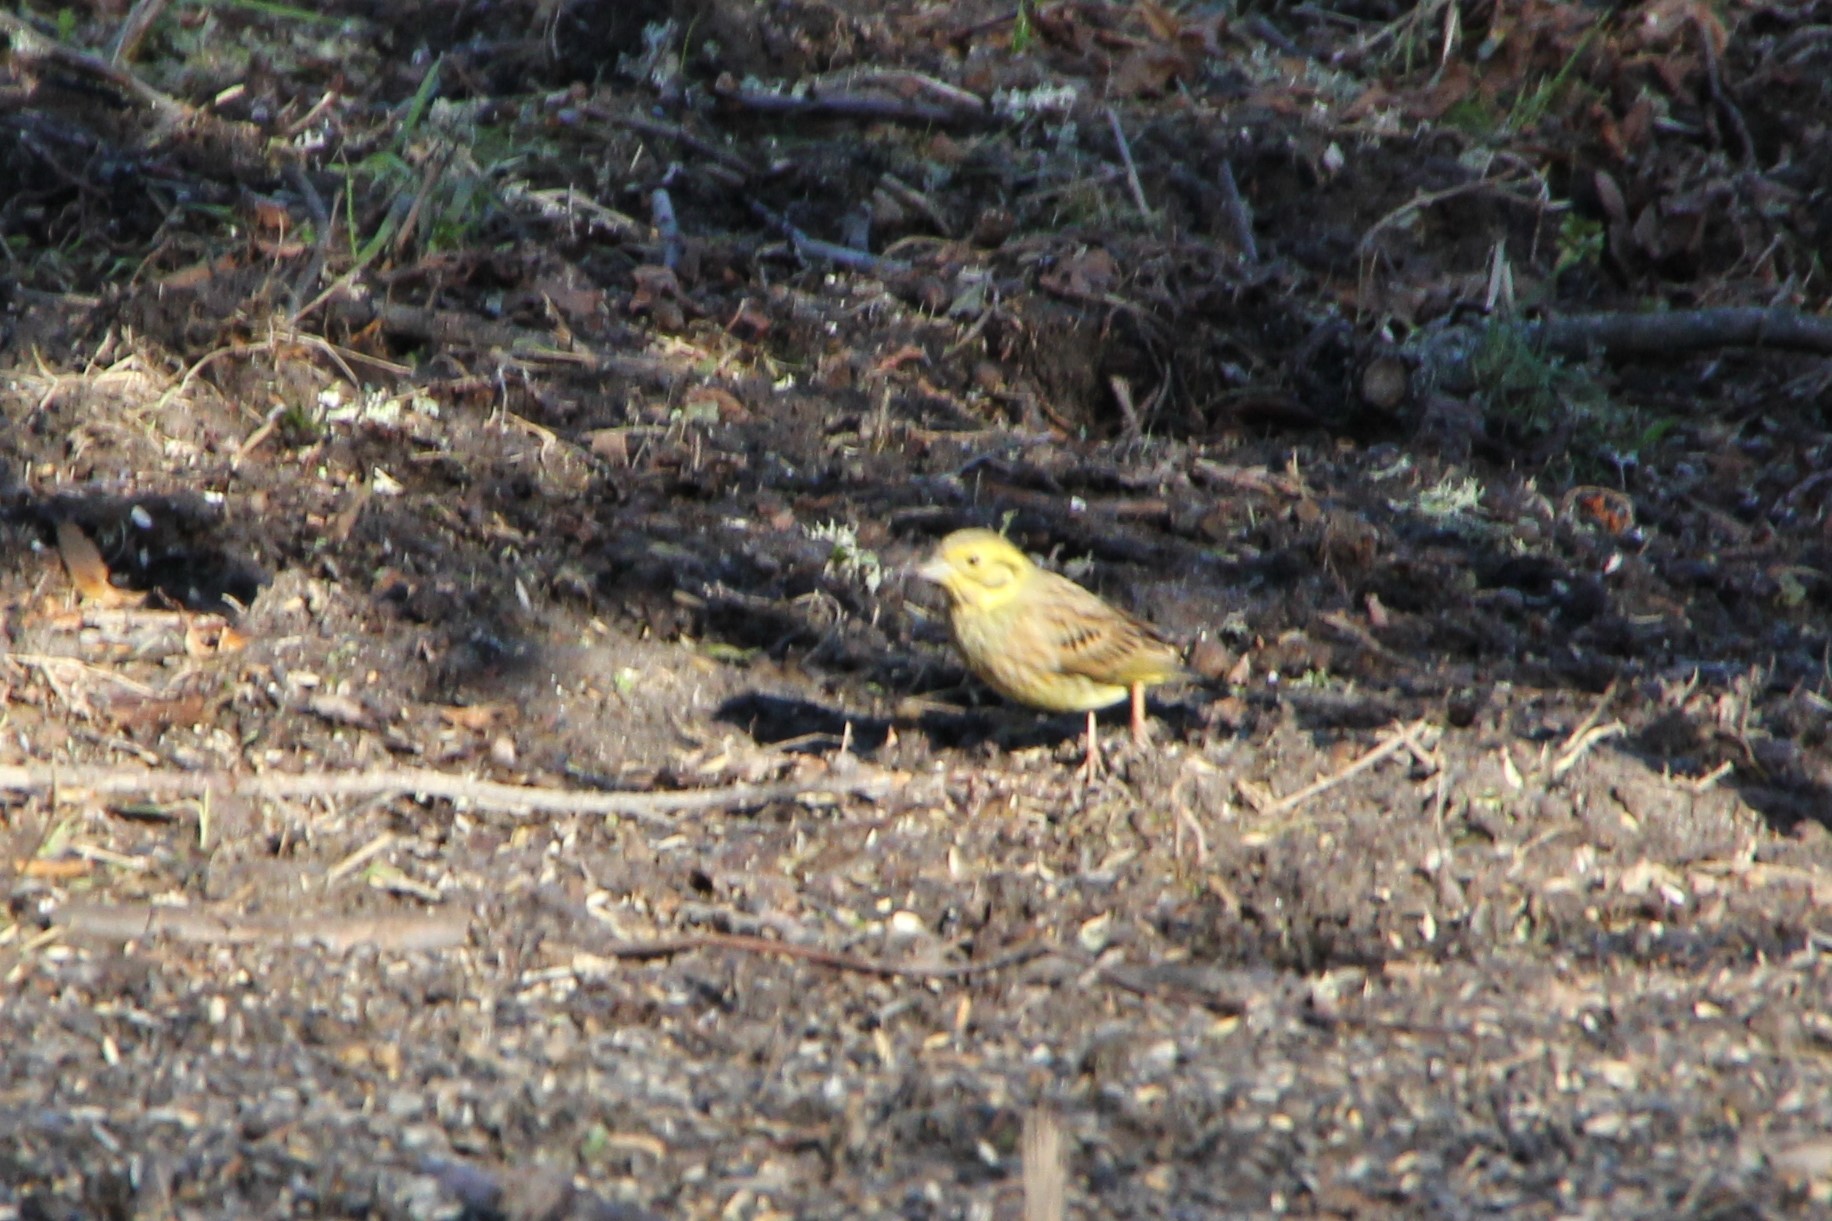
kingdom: Animalia
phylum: Chordata
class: Aves
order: Passeriformes
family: Emberizidae
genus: Emberiza
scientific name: Emberiza citrinella
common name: Yellowhammer
